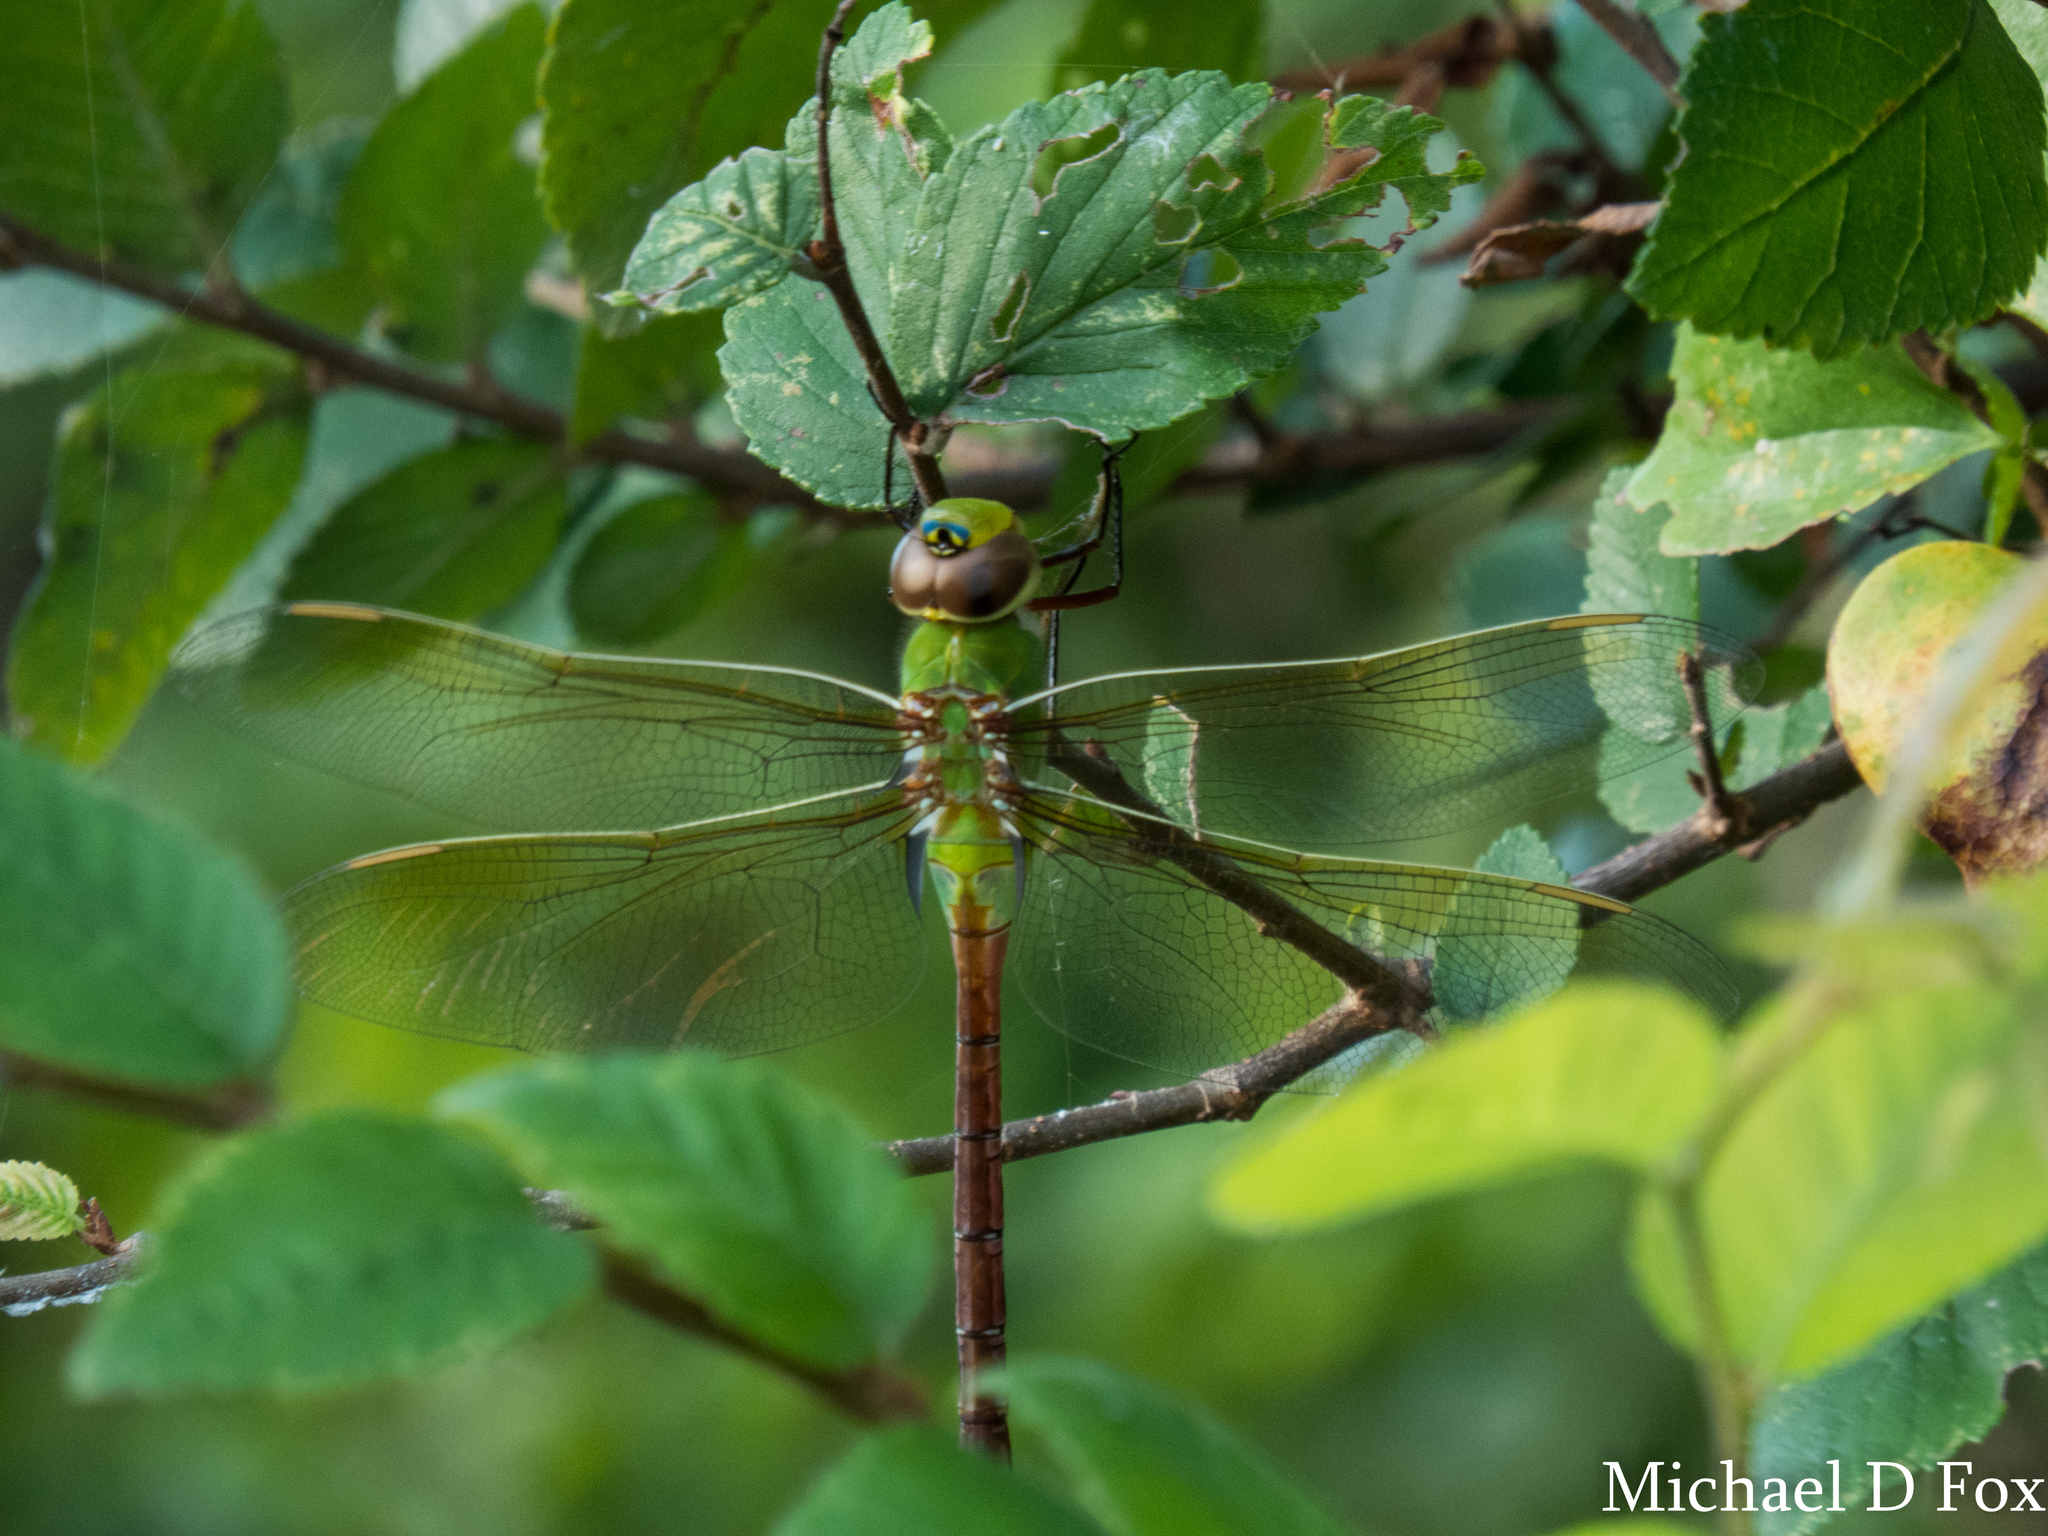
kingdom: Animalia
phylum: Arthropoda
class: Insecta
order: Odonata
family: Aeshnidae
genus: Anax
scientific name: Anax junius
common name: Common green darner
